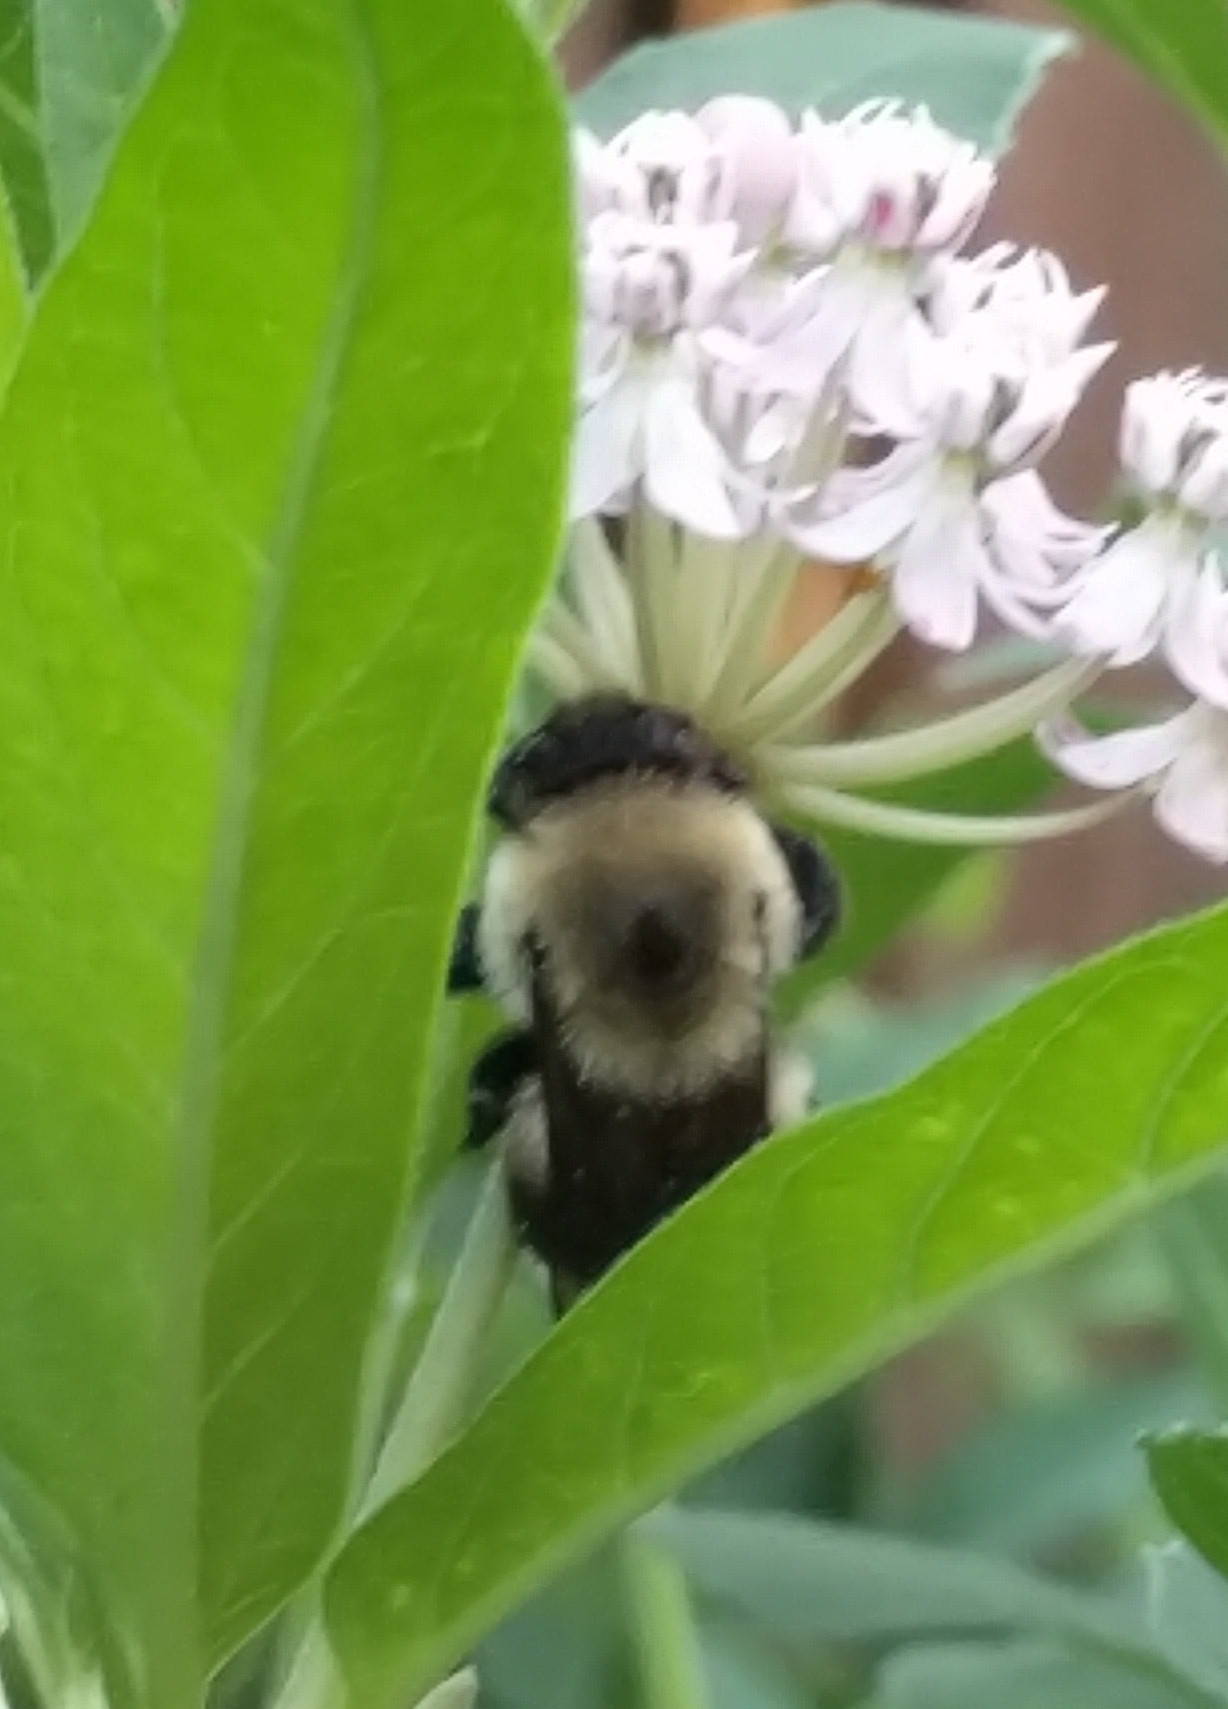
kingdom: Animalia
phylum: Arthropoda
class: Insecta
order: Hymenoptera
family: Apidae
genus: Bombus
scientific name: Bombus griseocollis
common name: Brown-belted bumble bee
